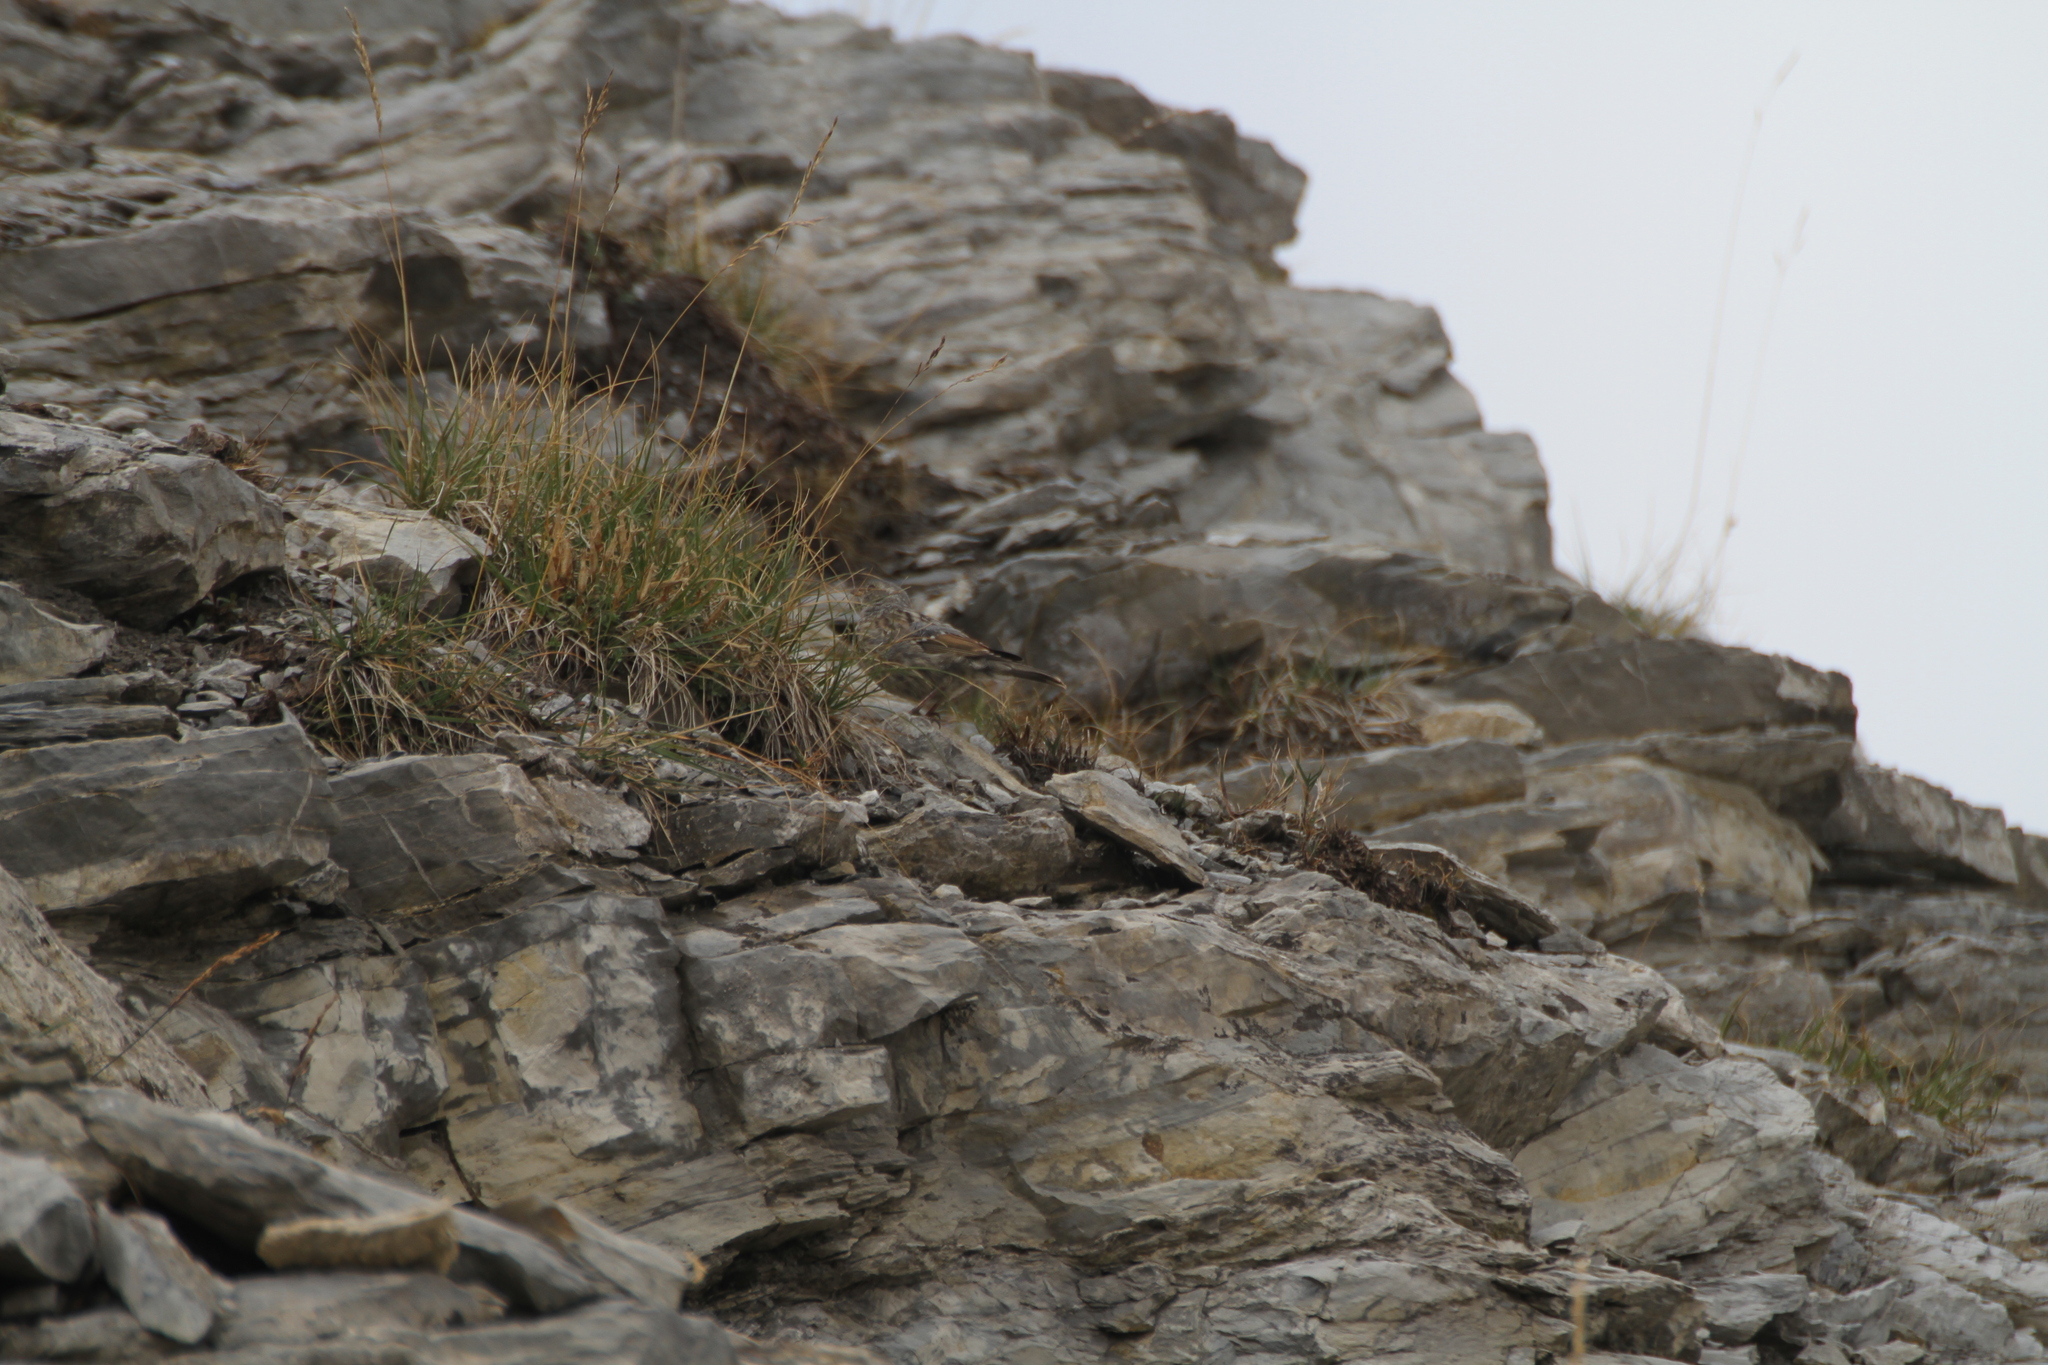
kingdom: Animalia
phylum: Chordata
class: Aves
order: Passeriformes
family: Prunellidae
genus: Prunella
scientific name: Prunella collaris
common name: Alpine accentor
